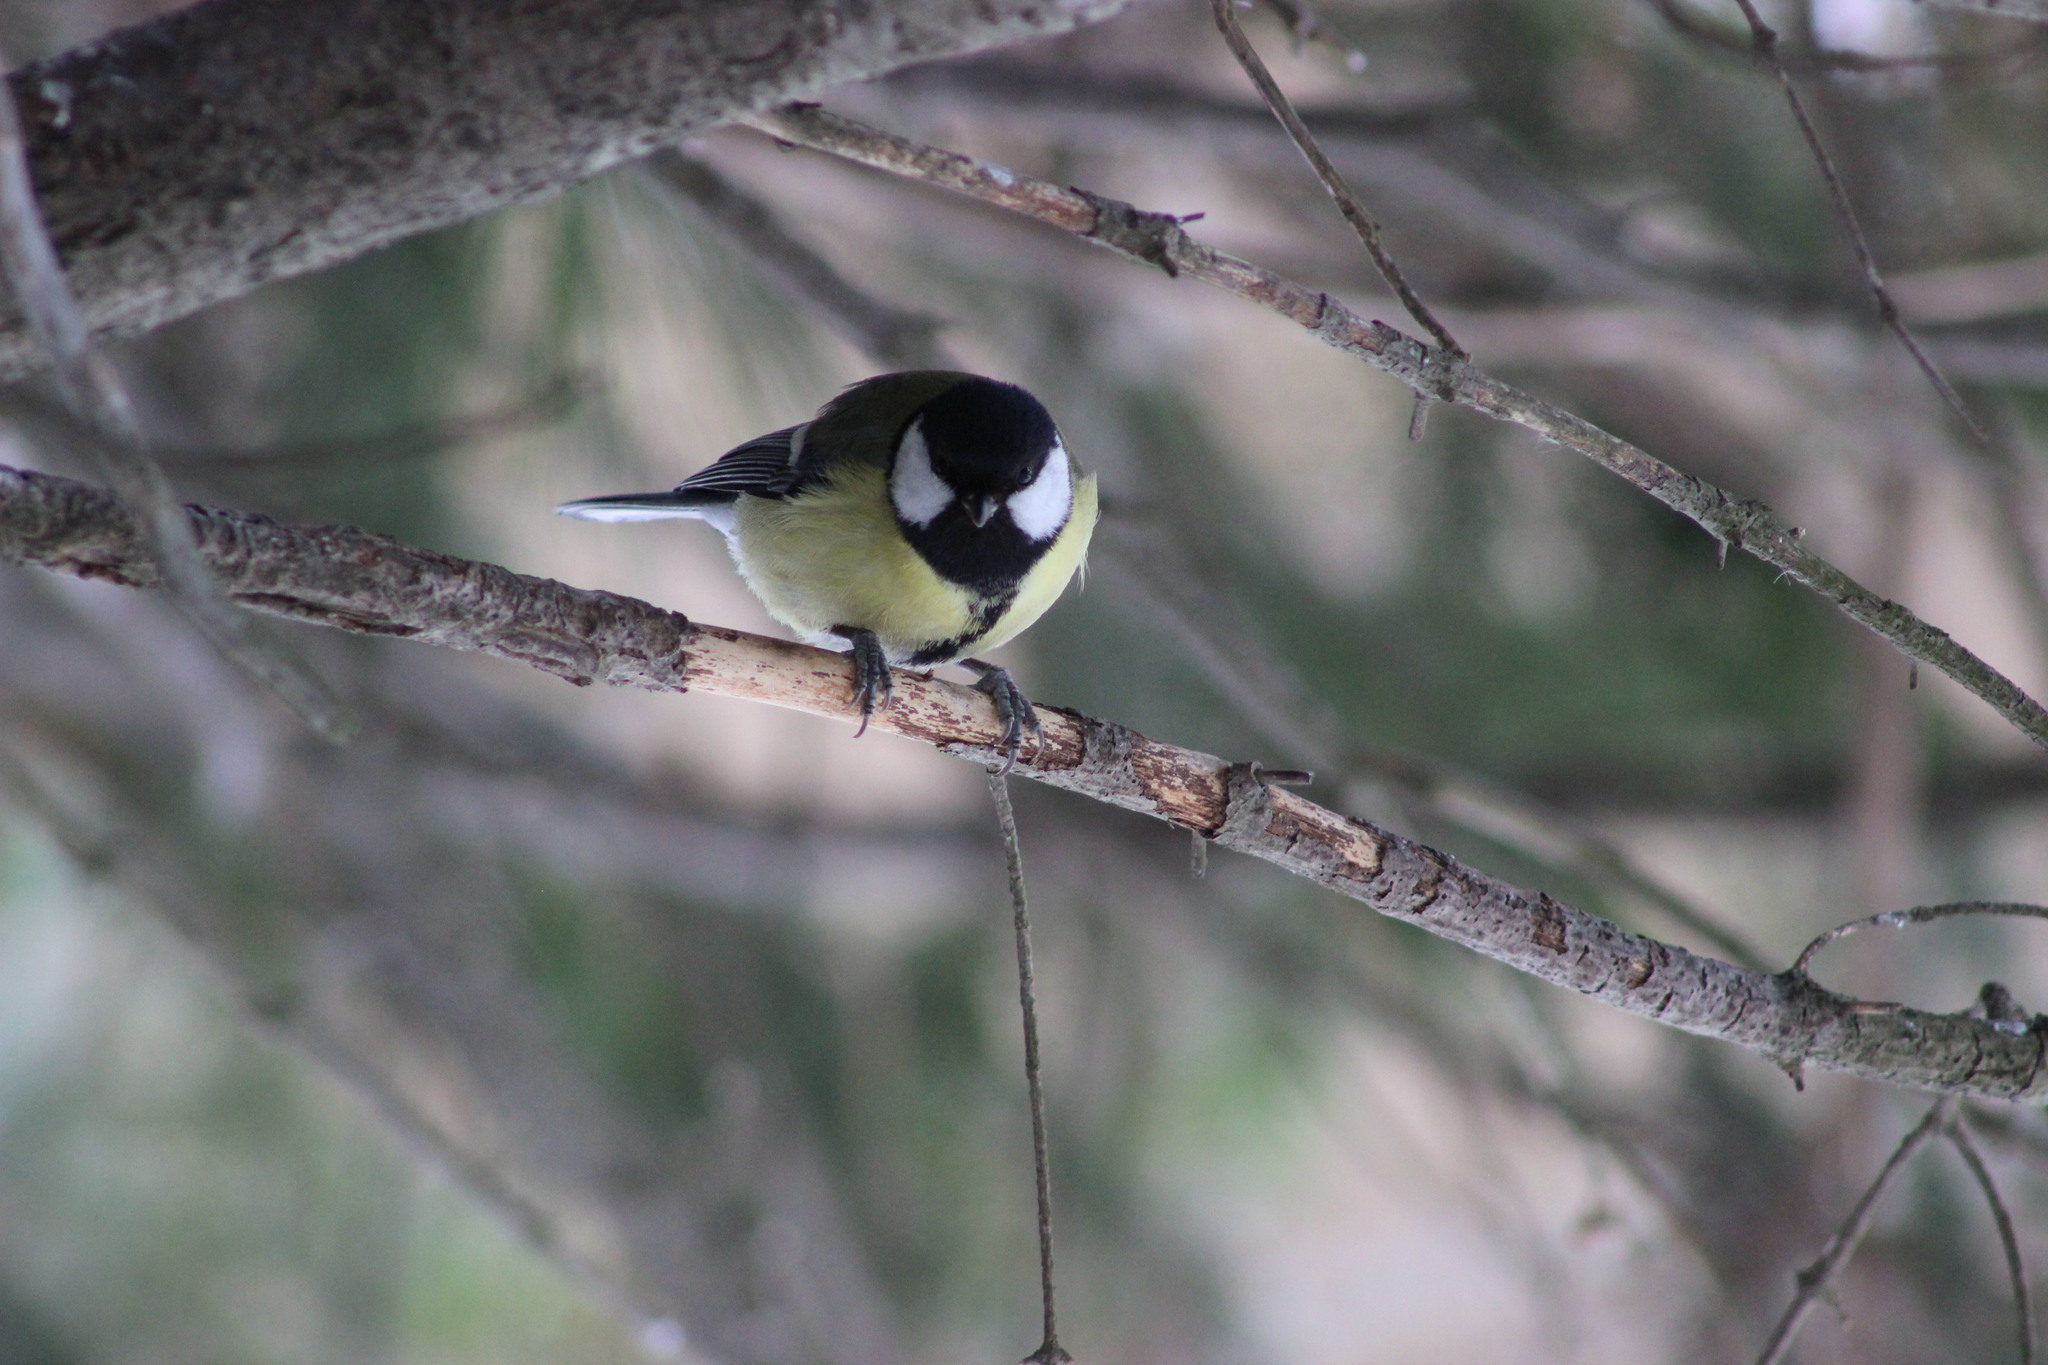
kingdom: Animalia
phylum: Chordata
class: Aves
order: Passeriformes
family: Paridae
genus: Parus
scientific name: Parus major
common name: Great tit
